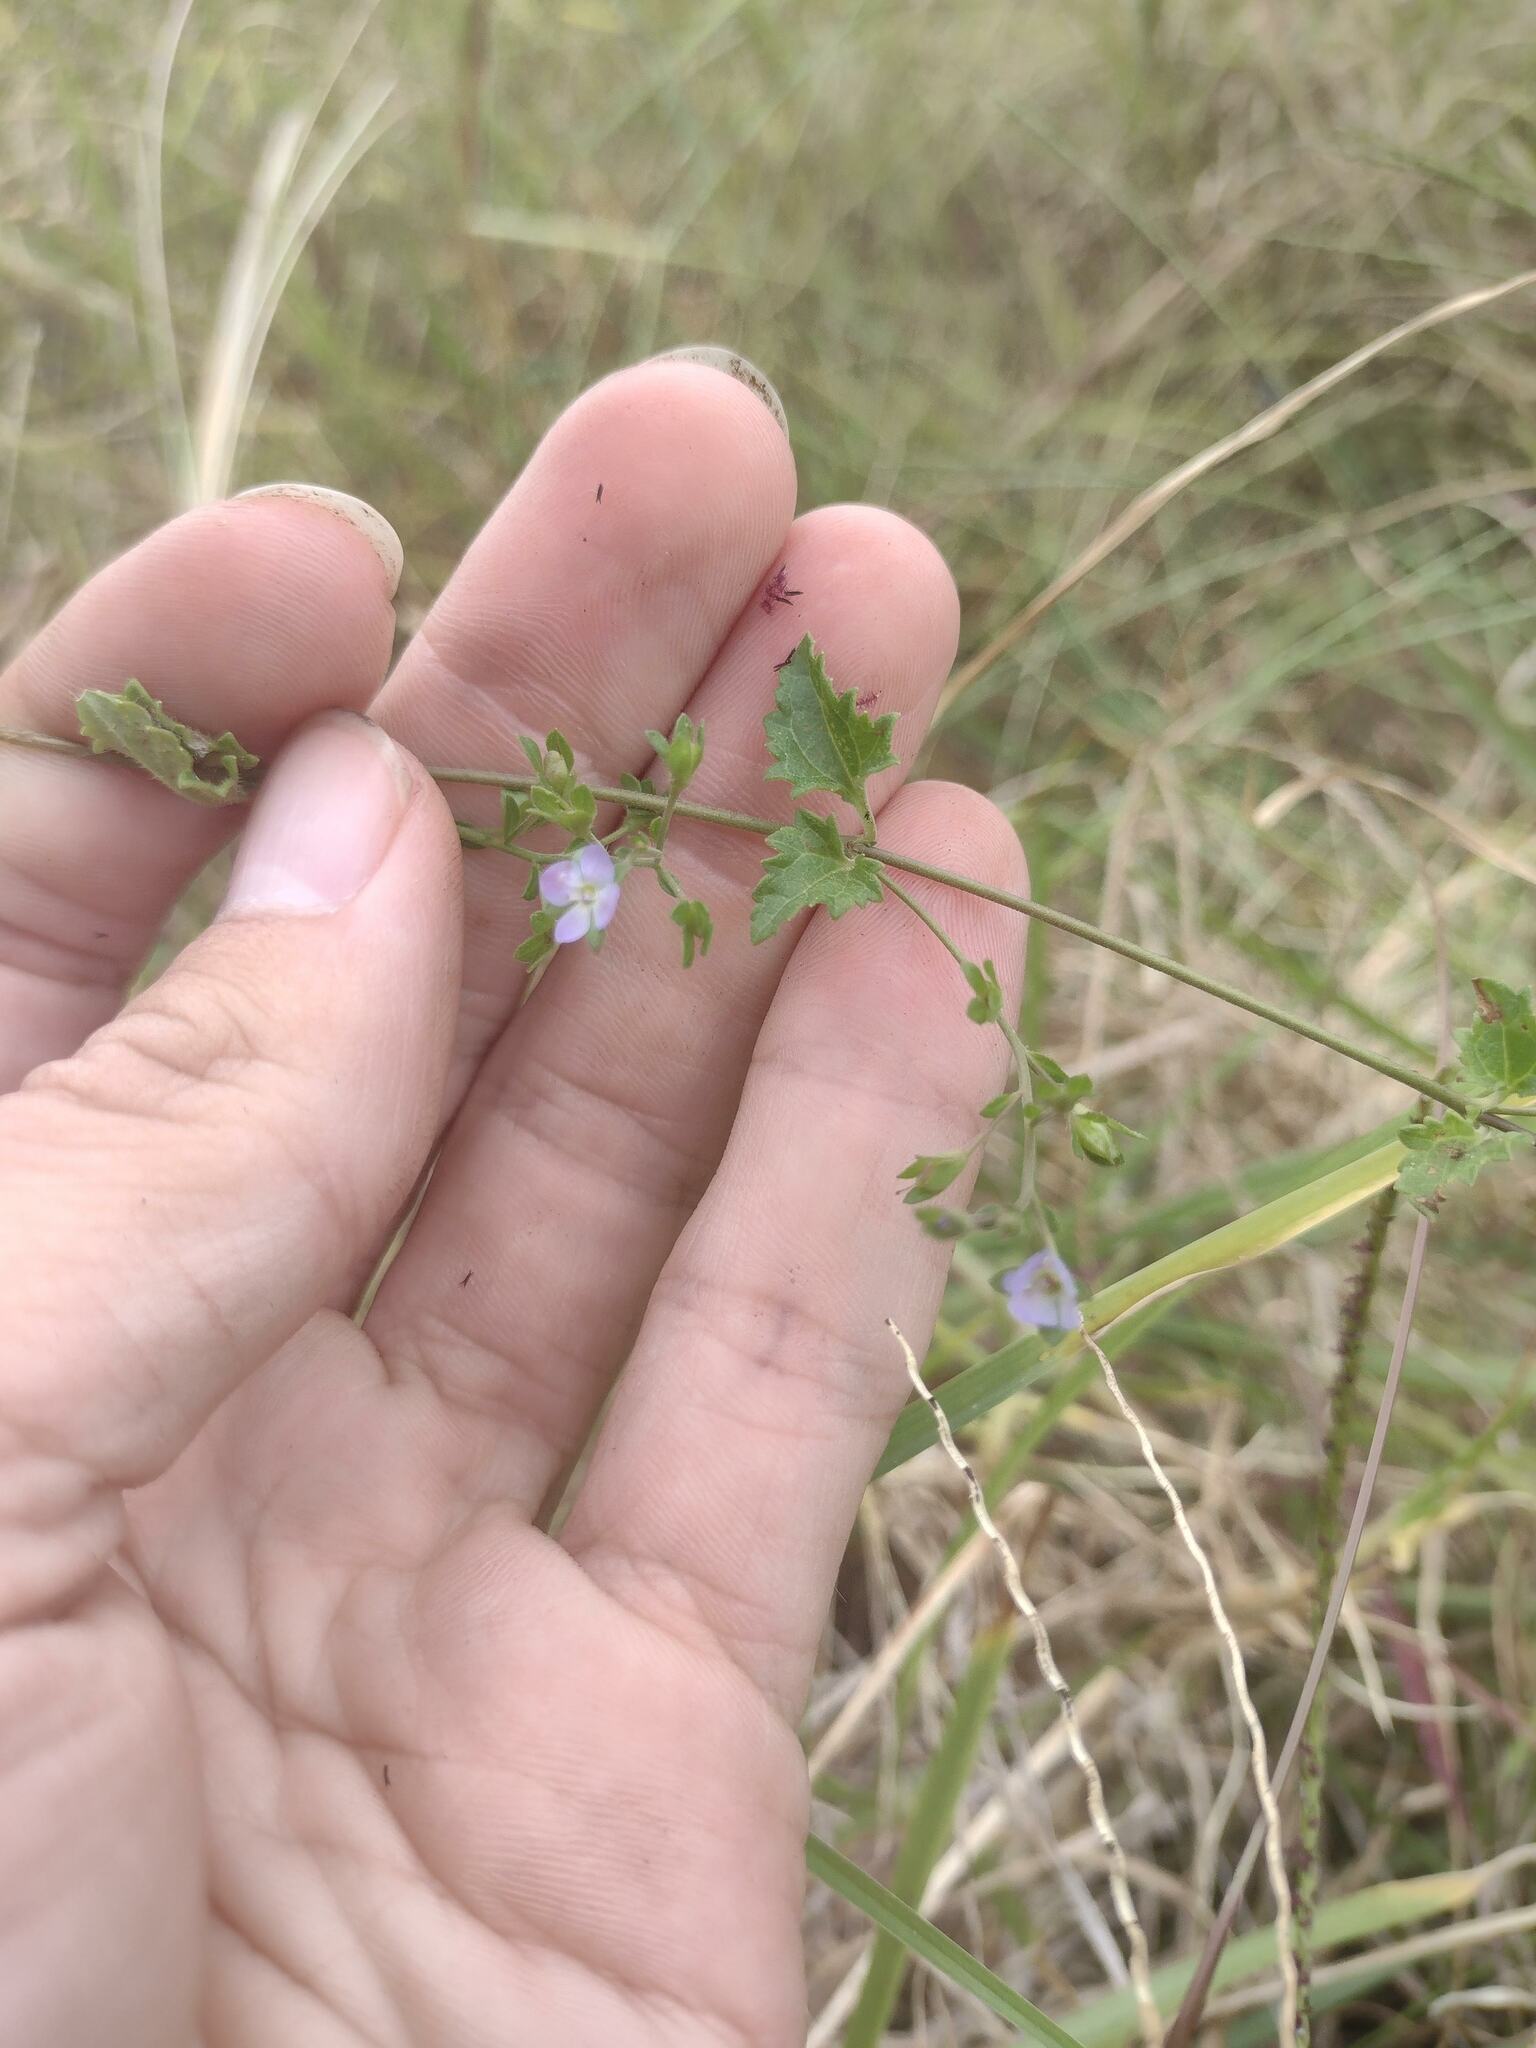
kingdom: Plantae
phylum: Tracheophyta
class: Magnoliopsida
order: Lamiales
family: Plantaginaceae
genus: Veronica
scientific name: Veronica plebeia
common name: Speedwell
